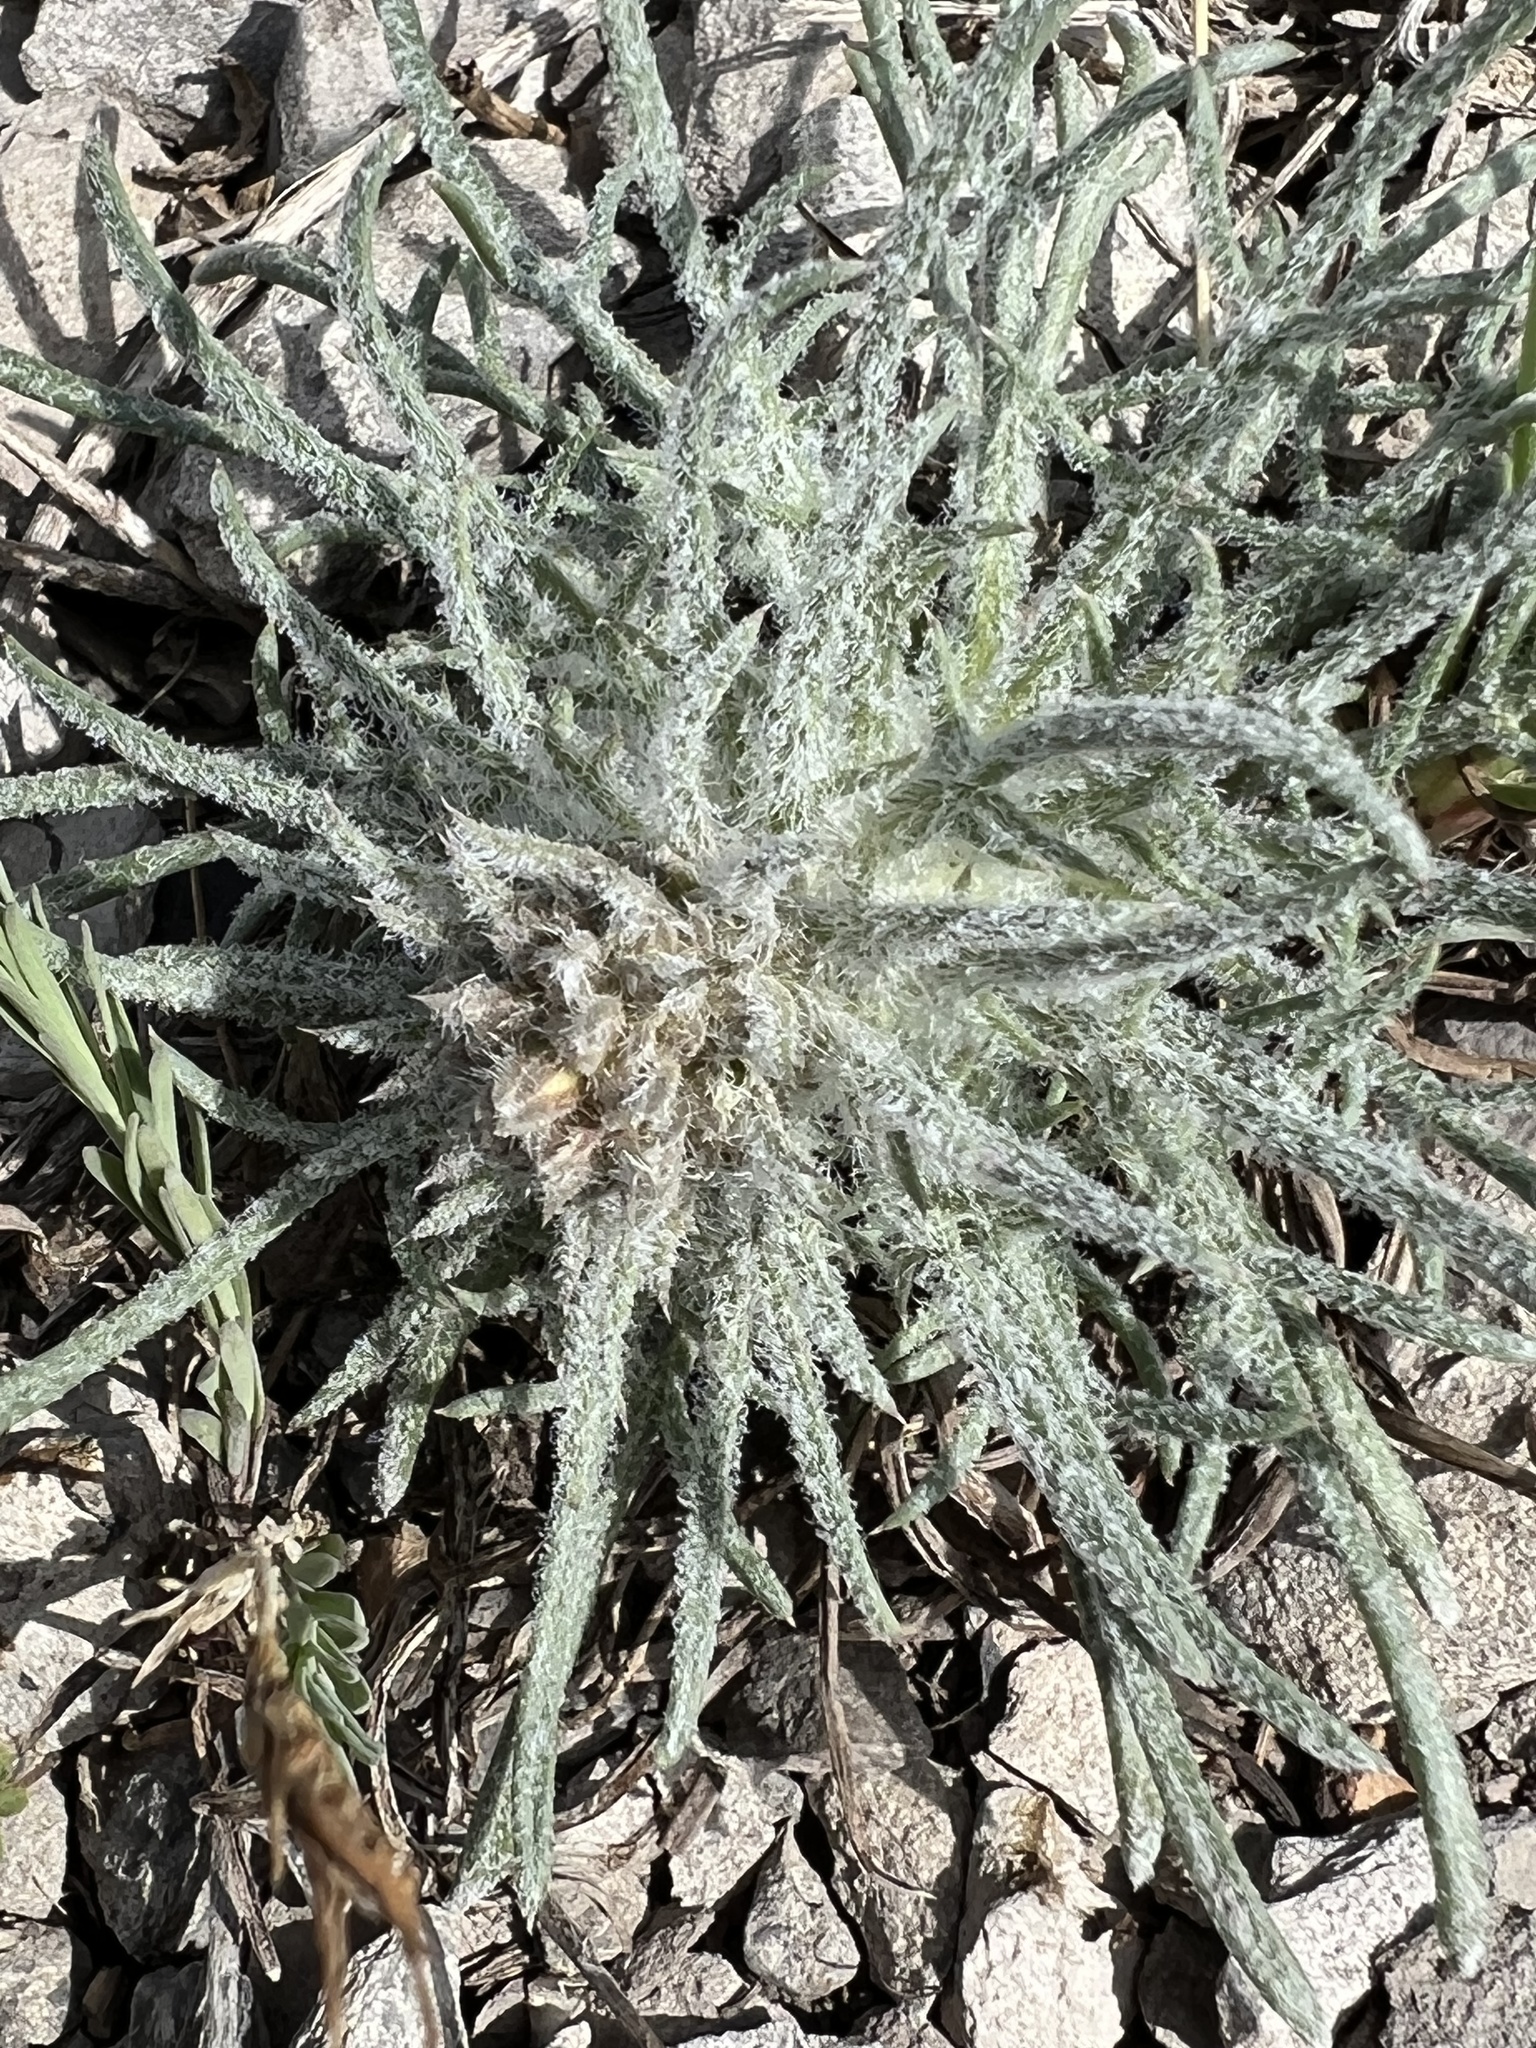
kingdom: Plantae
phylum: Tracheophyta
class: Magnoliopsida
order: Ericales
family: Polemoniaceae
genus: Ipomopsis
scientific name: Ipomopsis spicata
